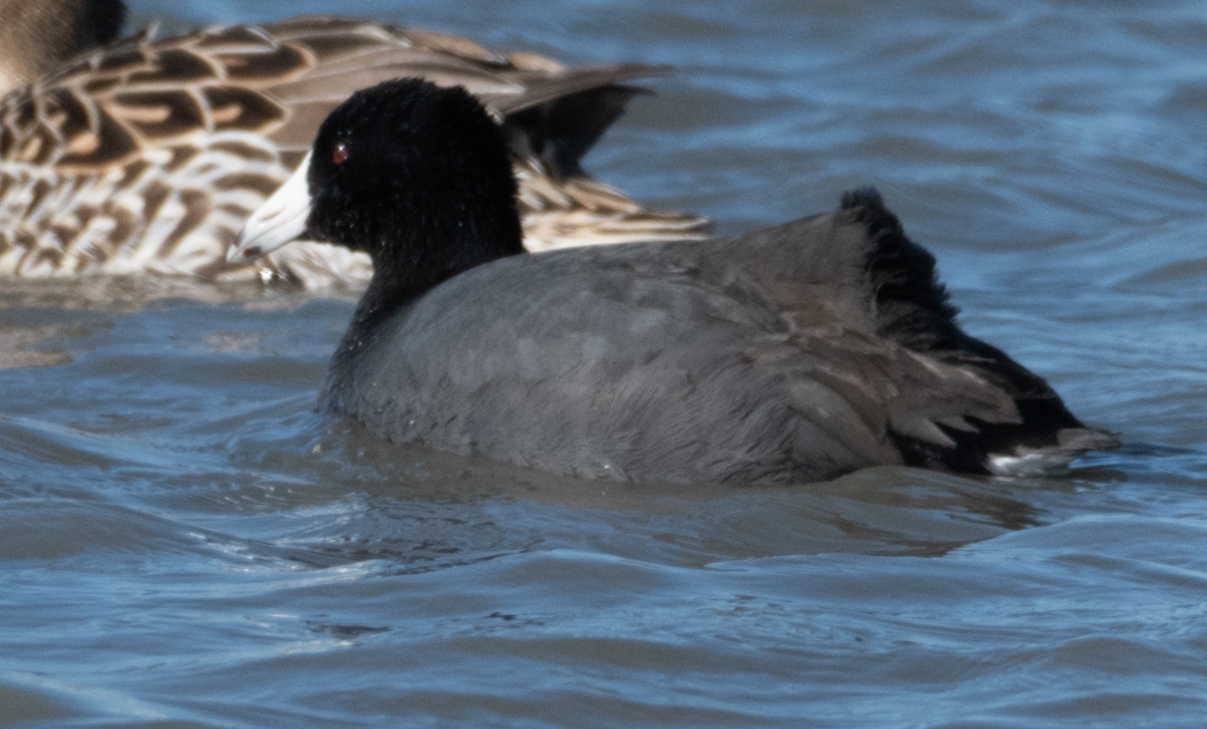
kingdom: Animalia
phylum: Chordata
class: Aves
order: Gruiformes
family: Rallidae
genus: Fulica
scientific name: Fulica americana
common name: American coot
